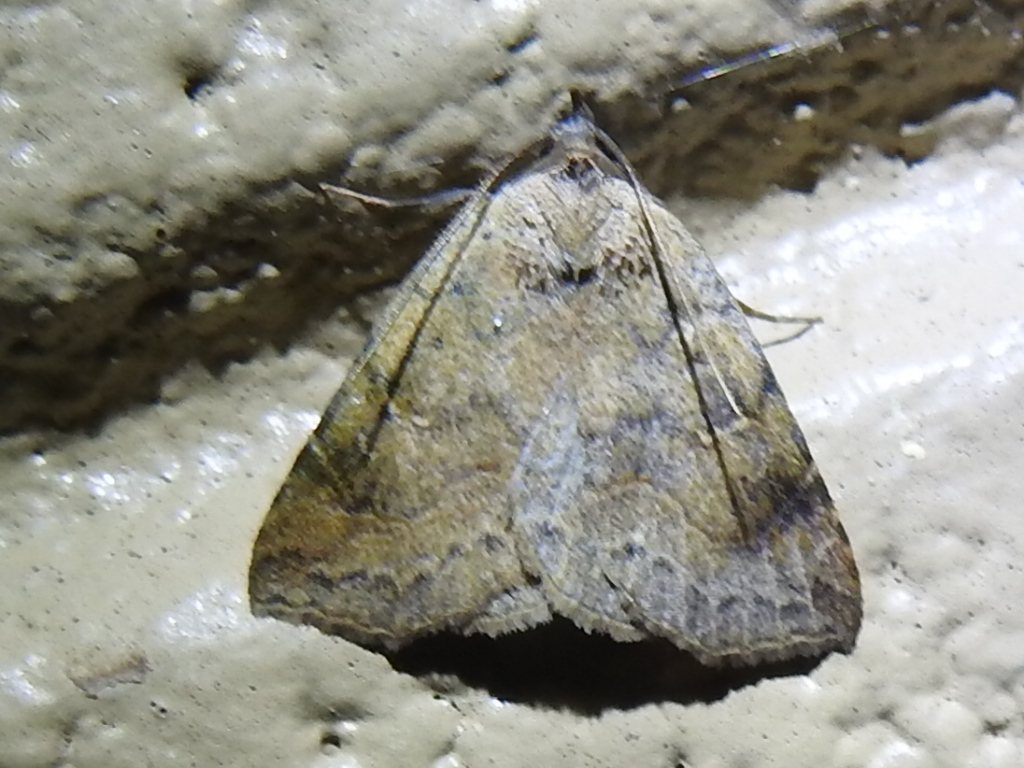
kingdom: Animalia
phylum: Arthropoda
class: Insecta
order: Lepidoptera
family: Erebidae
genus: Isogona
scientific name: Isogona texana
